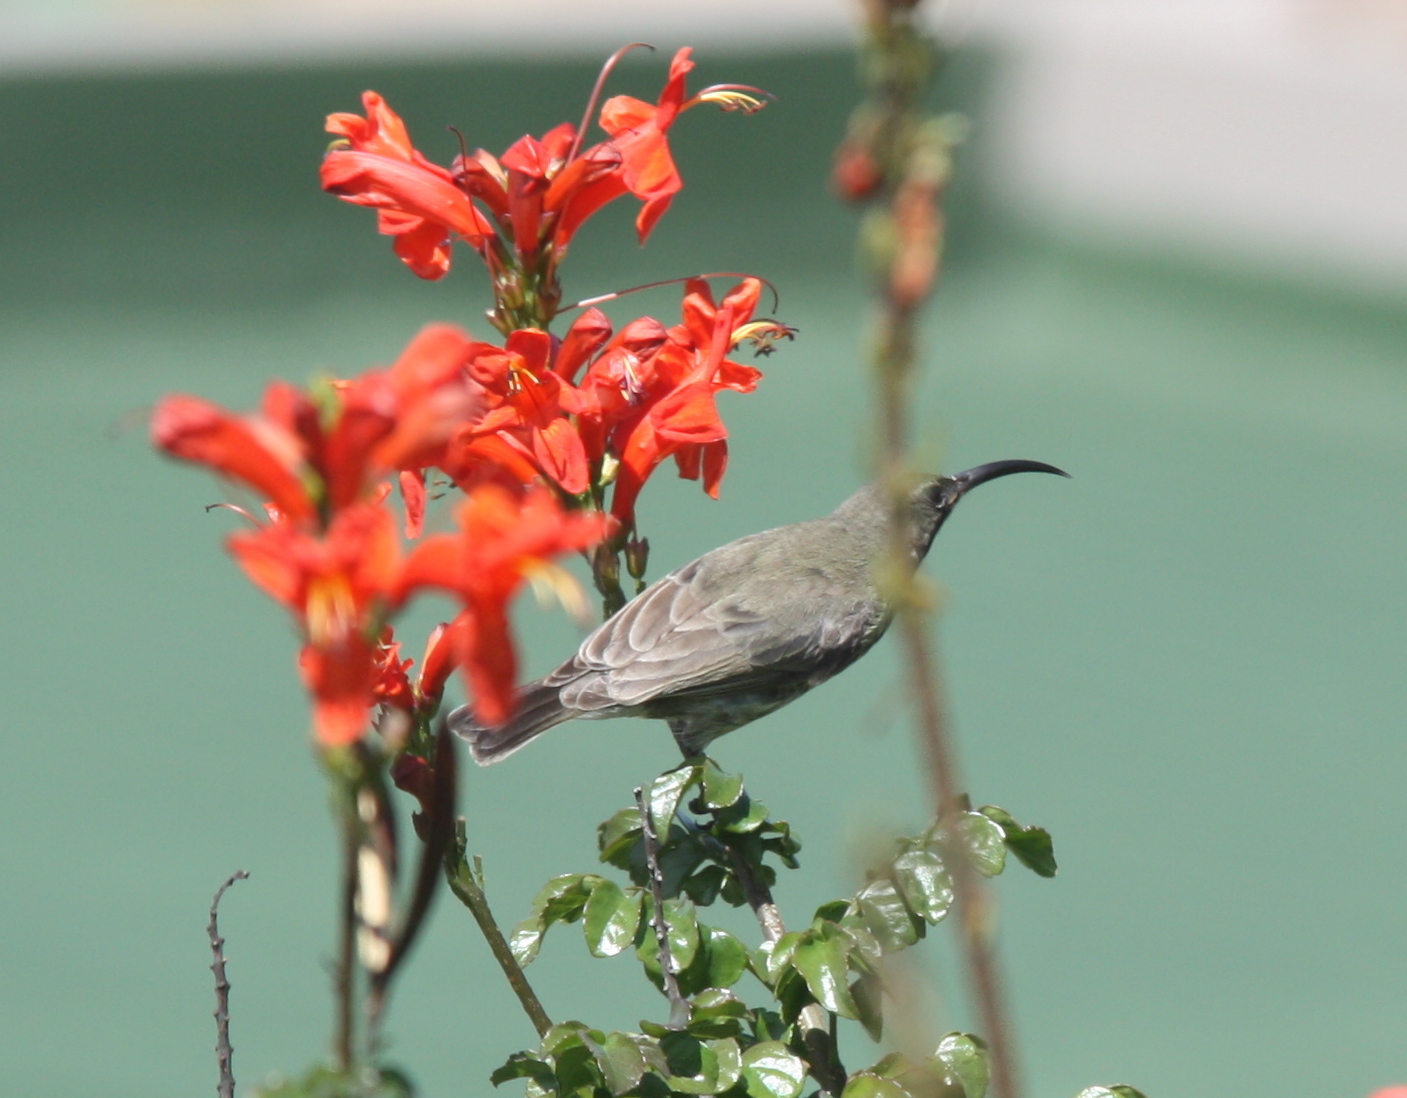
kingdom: Animalia
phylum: Chordata
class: Aves
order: Passeriformes
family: Nectariniidae
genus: Chalcomitra
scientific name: Chalcomitra amethystina
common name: Amethyst sunbird
